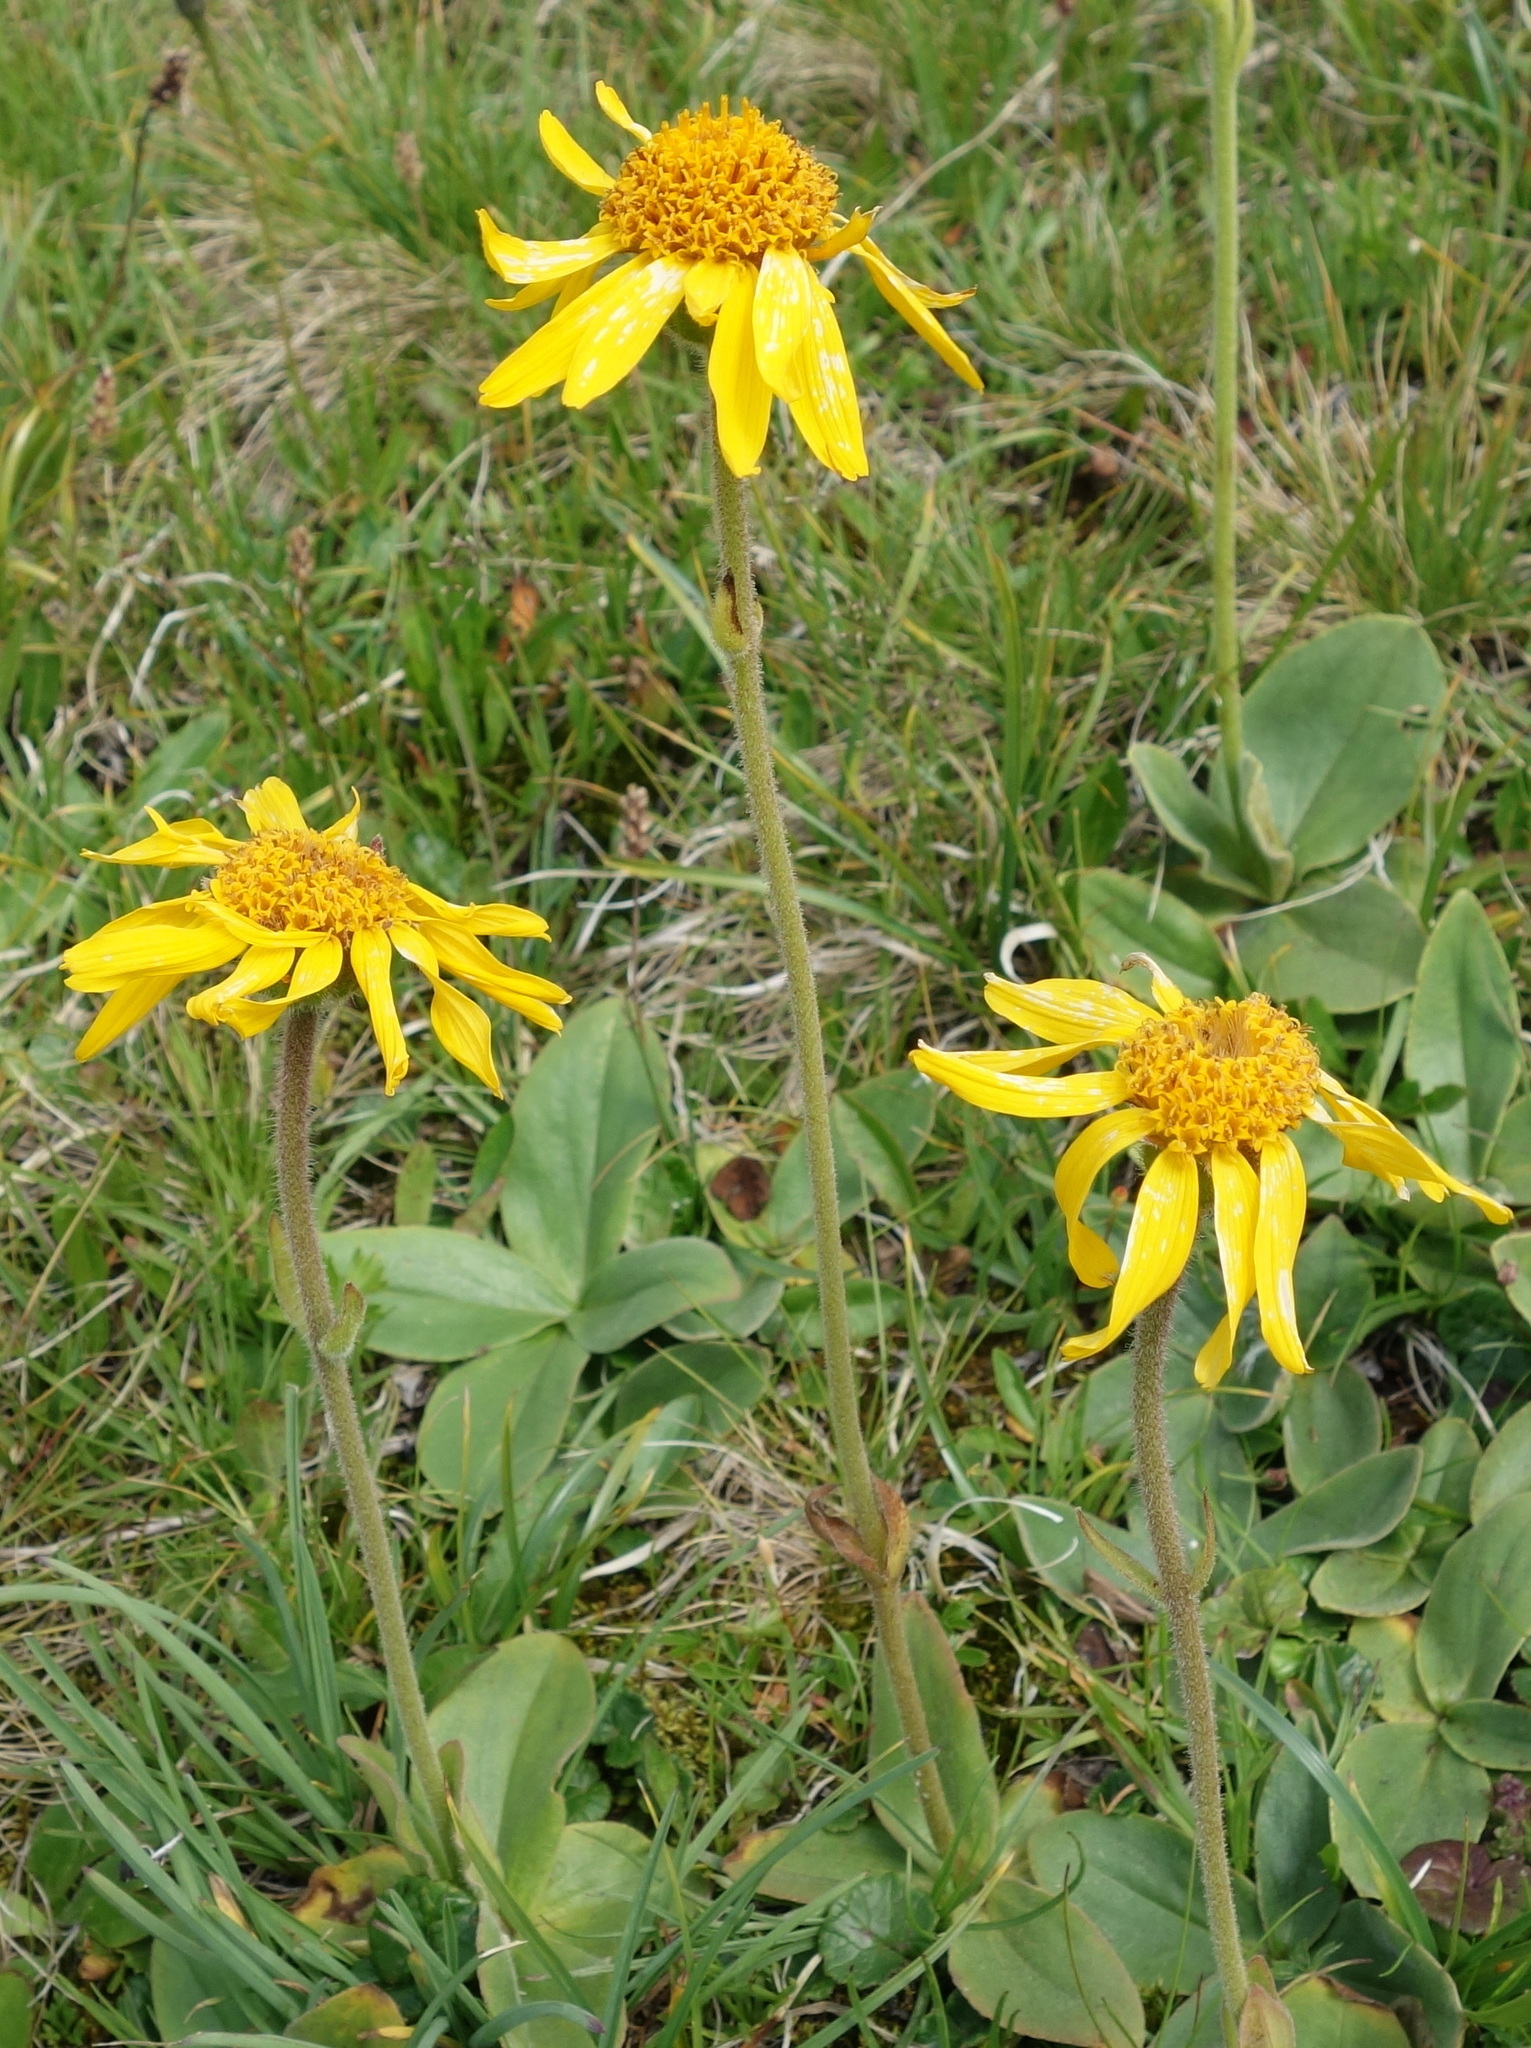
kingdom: Plantae
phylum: Tracheophyta
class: Magnoliopsida
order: Asterales
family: Asteraceae
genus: Arnica
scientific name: Arnica montana
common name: Leopard's bane
